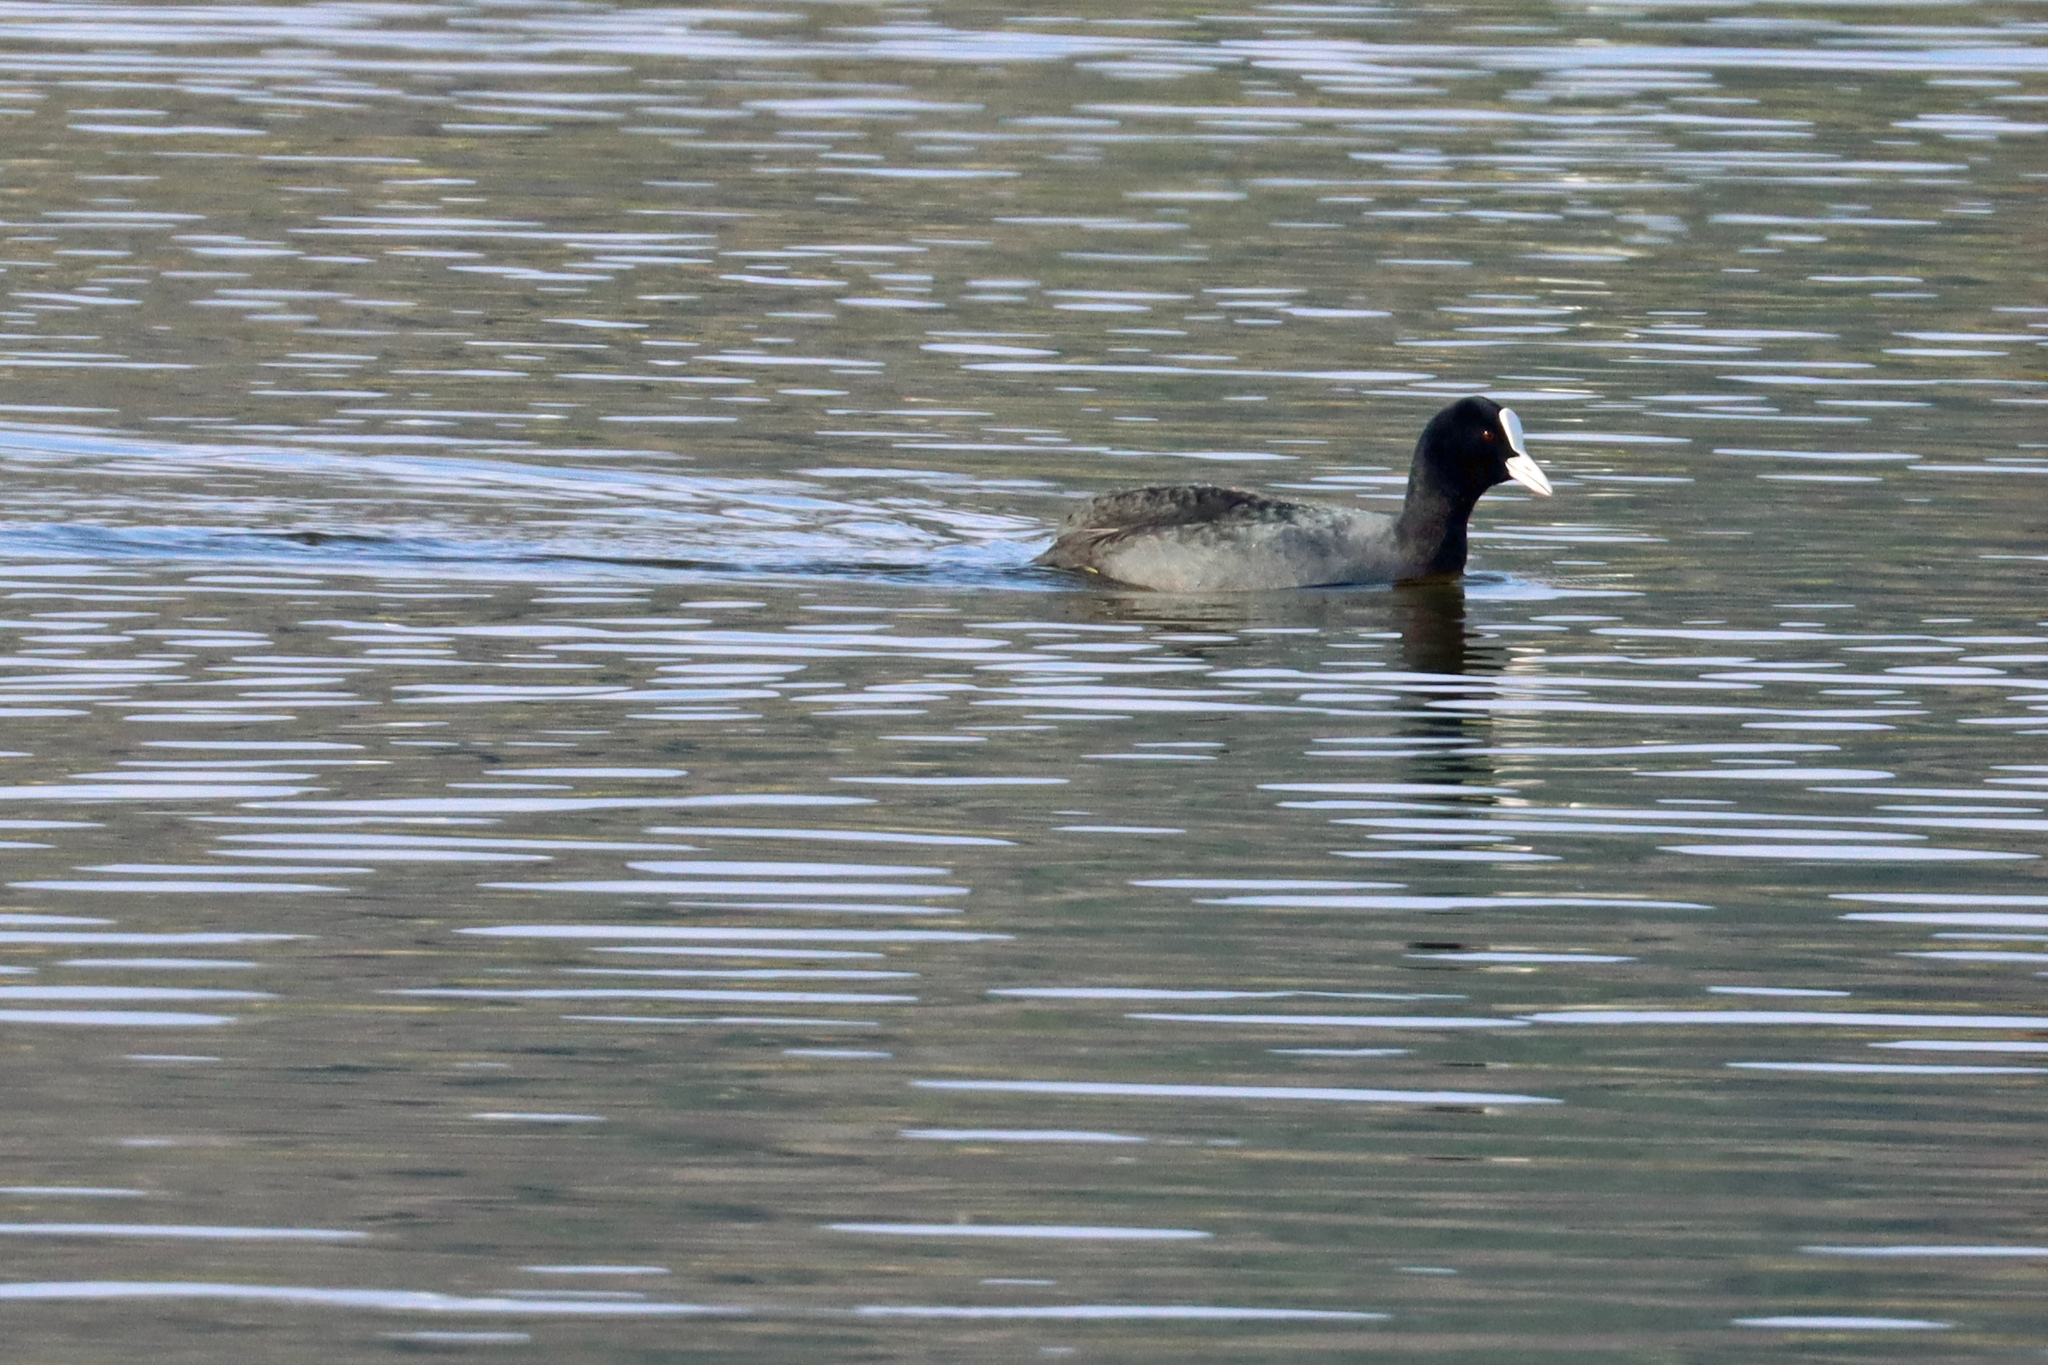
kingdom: Animalia
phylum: Chordata
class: Aves
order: Gruiformes
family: Rallidae
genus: Fulica
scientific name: Fulica atra
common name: Eurasian coot
